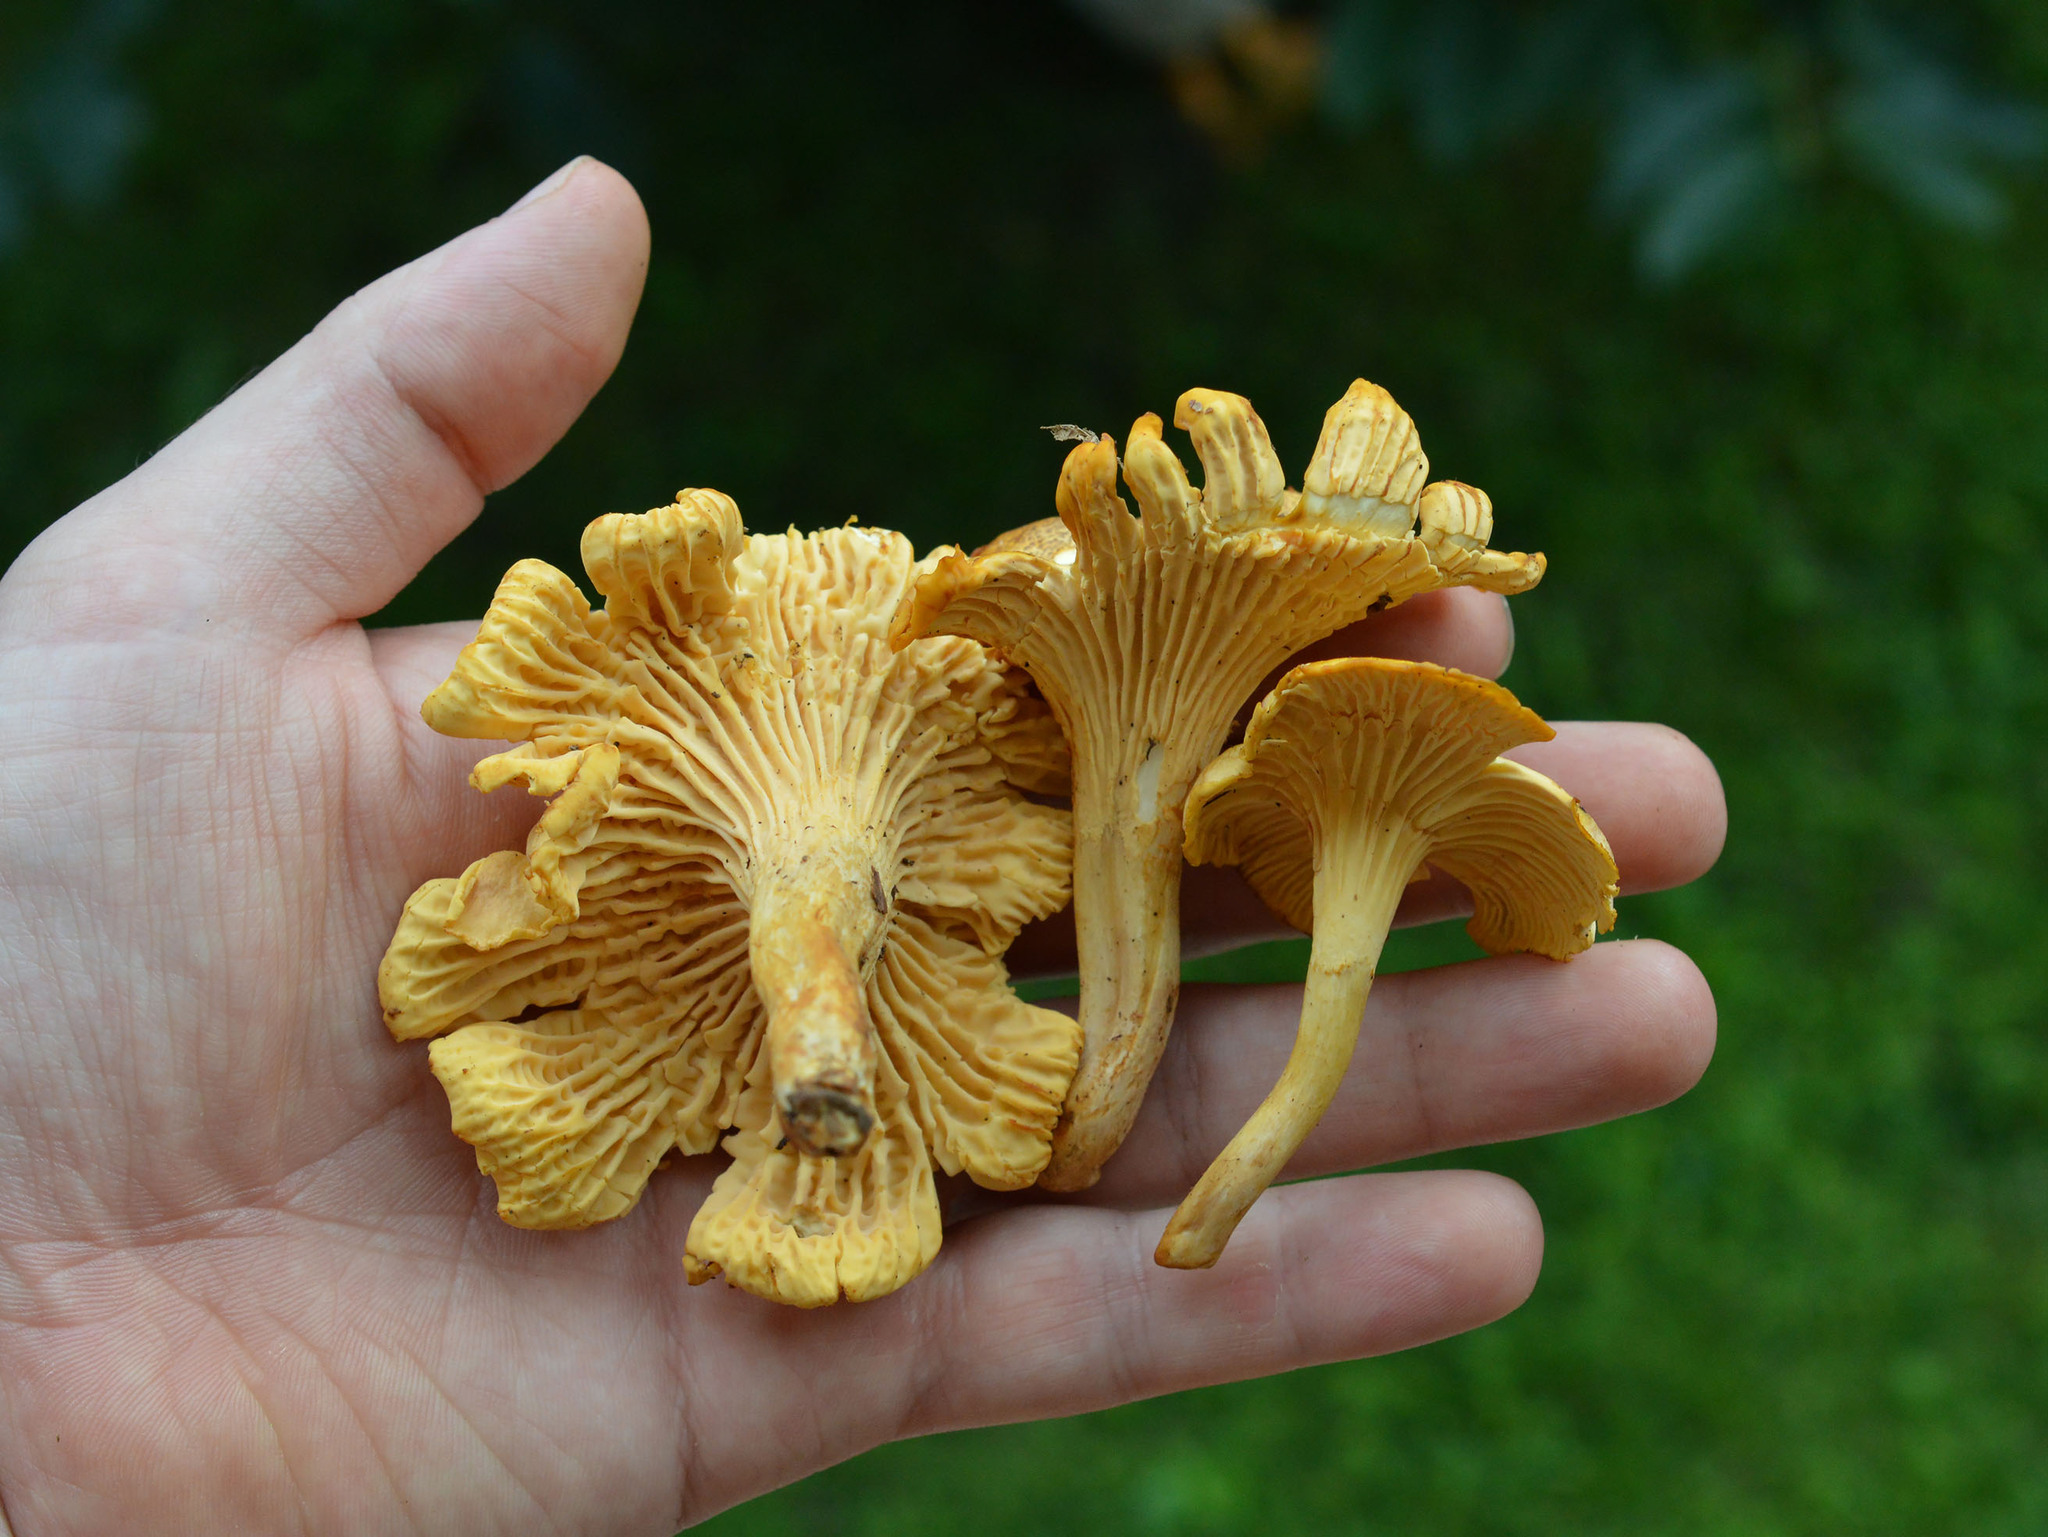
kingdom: Fungi
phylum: Basidiomycota
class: Agaricomycetes
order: Cantharellales
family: Hydnaceae
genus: Cantharellus
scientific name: Cantharellus cibarius
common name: Chanterelle
